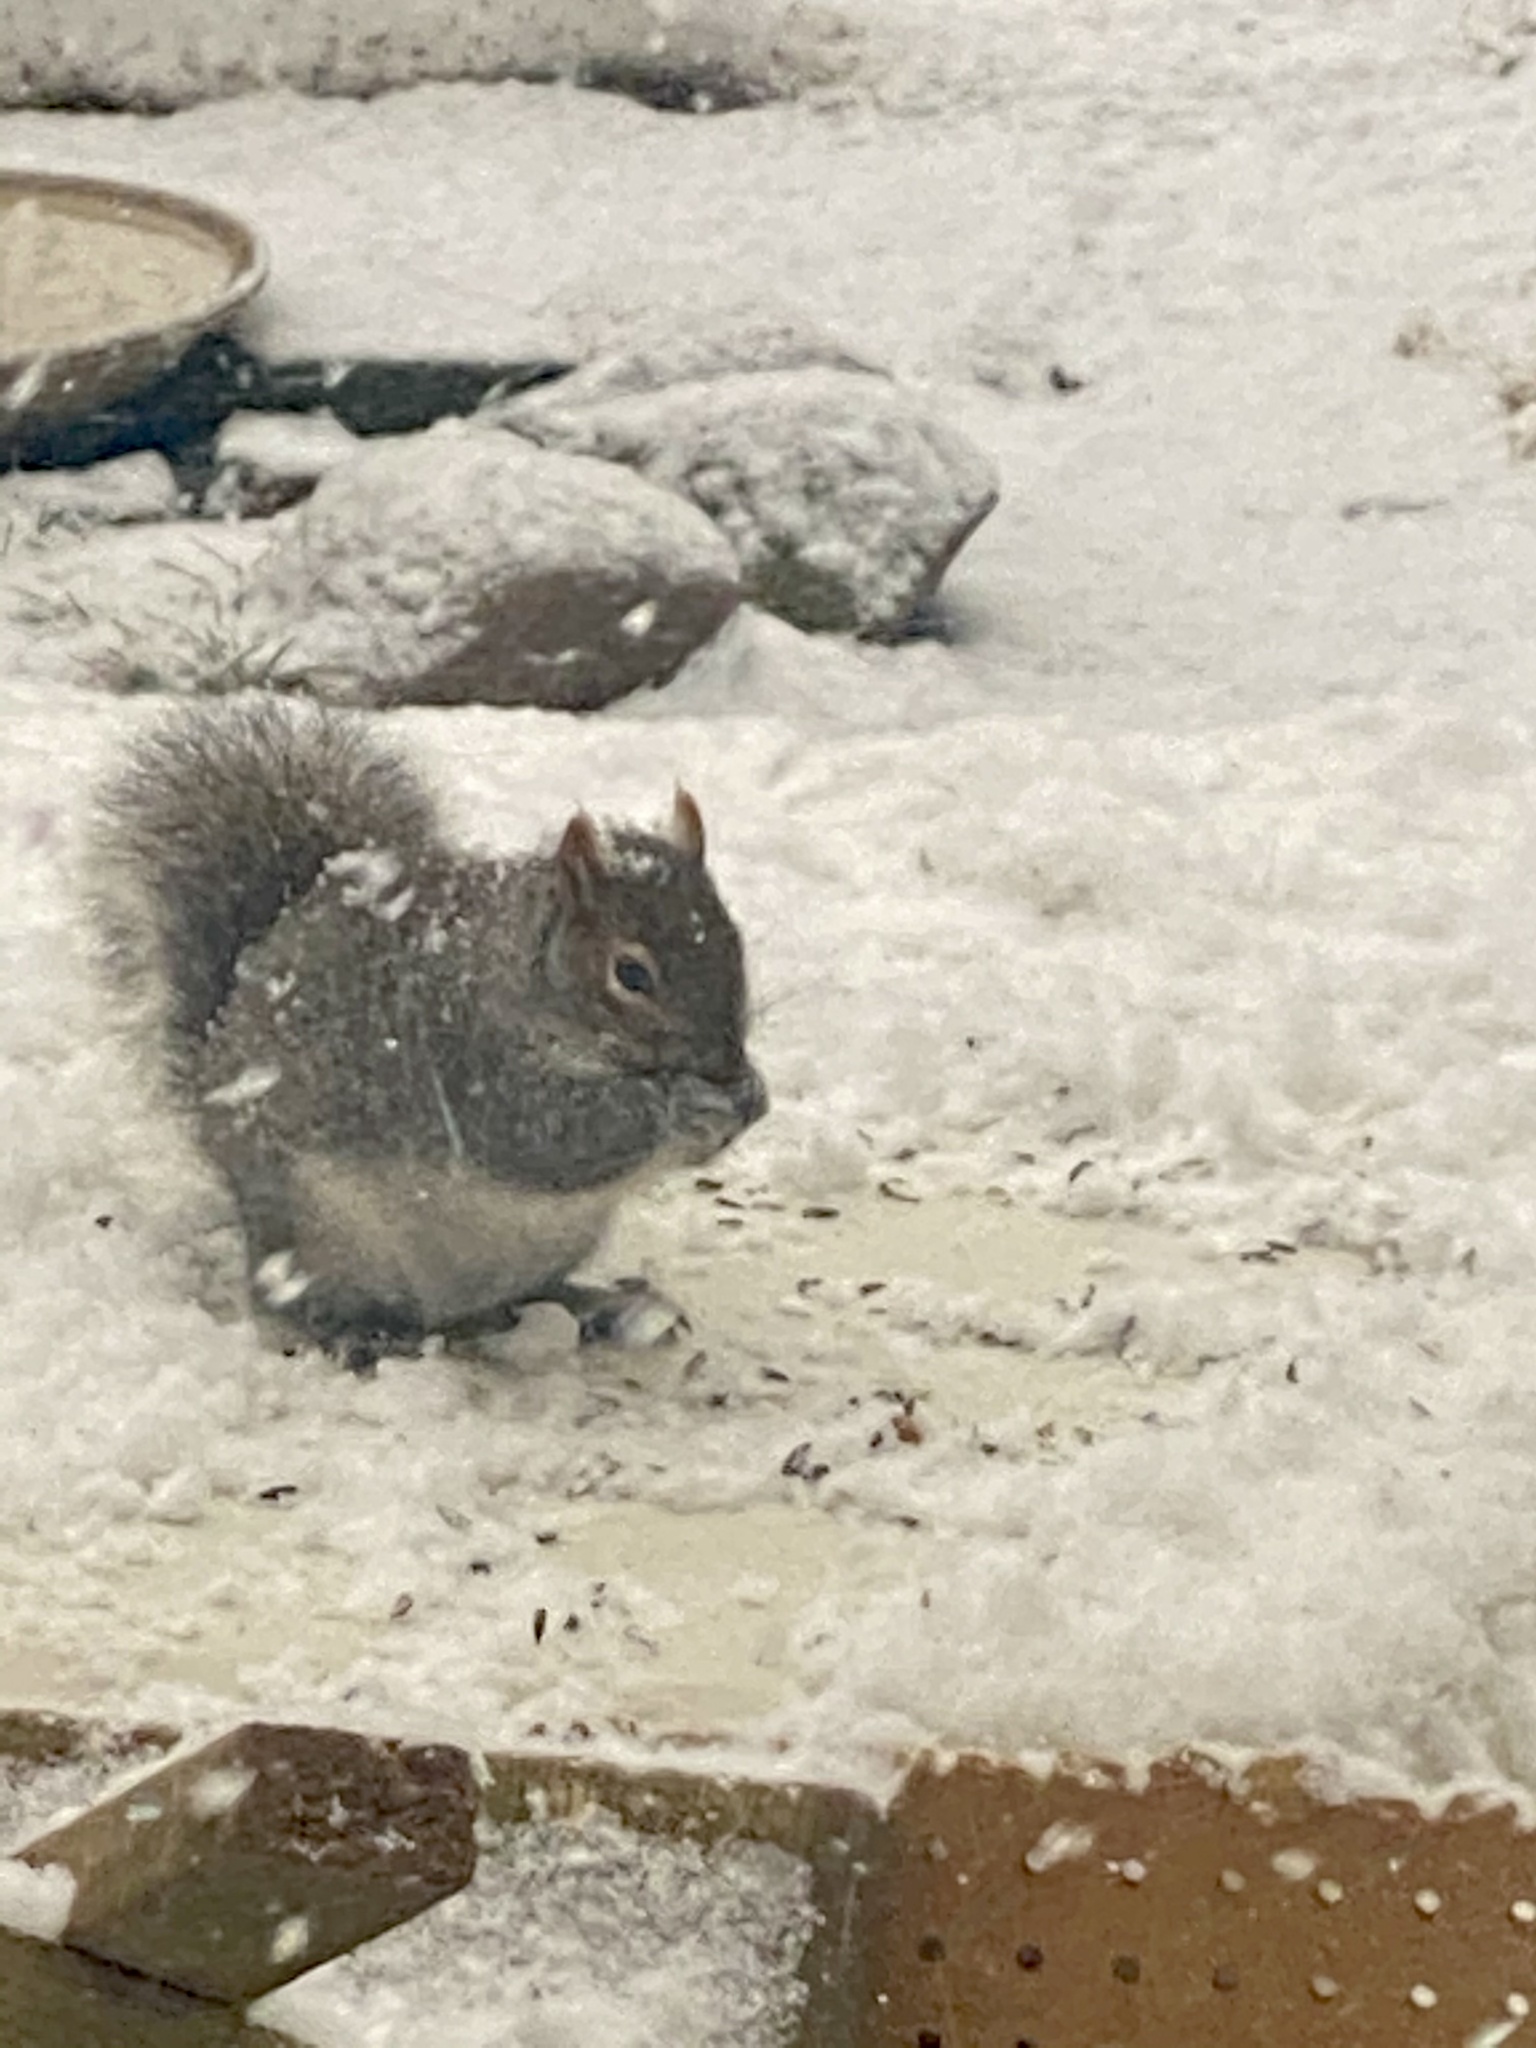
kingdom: Animalia
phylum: Chordata
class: Mammalia
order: Rodentia
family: Sciuridae
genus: Sciurus
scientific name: Sciurus carolinensis
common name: Eastern gray squirrel
